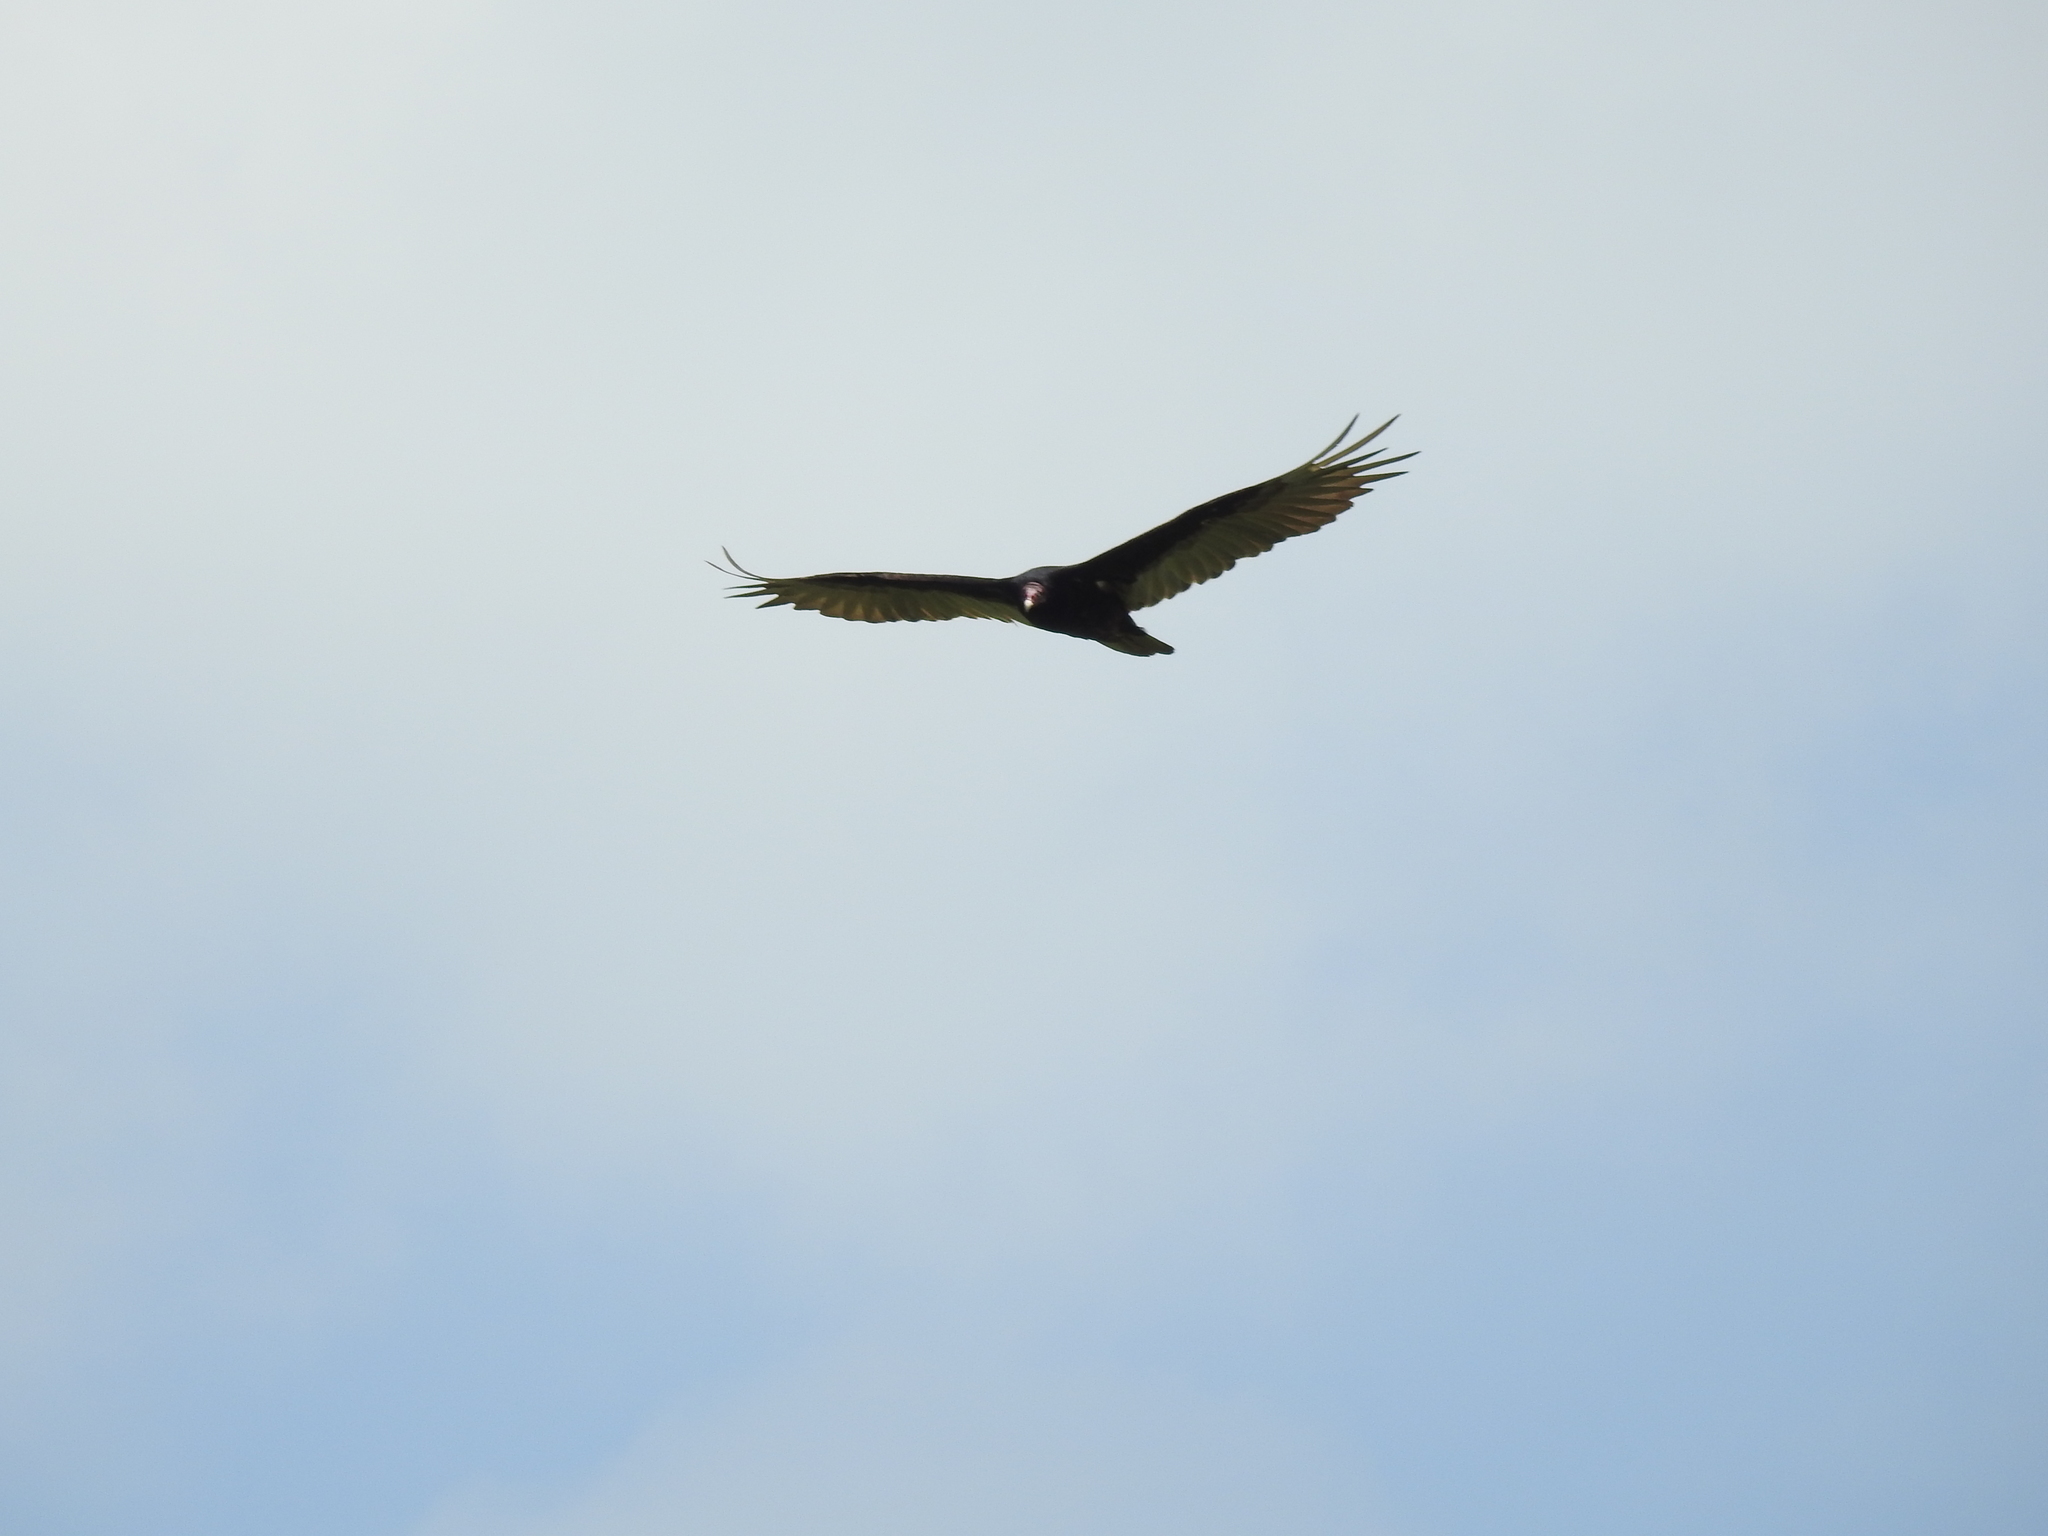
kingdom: Animalia
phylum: Chordata
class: Aves
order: Accipitriformes
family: Cathartidae
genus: Cathartes
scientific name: Cathartes aura
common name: Turkey vulture
